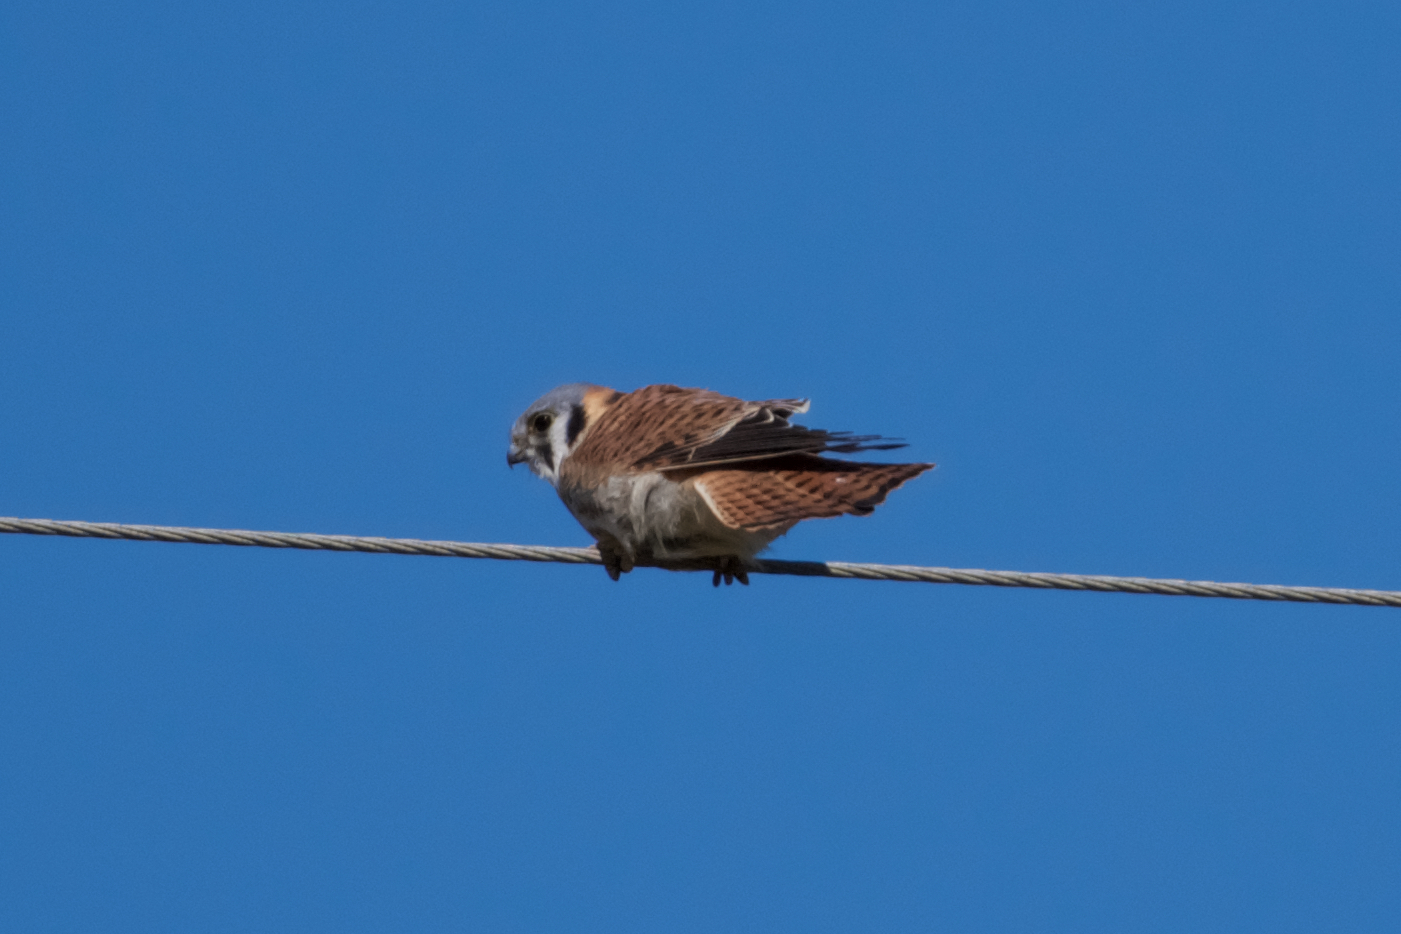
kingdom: Animalia
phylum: Chordata
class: Aves
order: Falconiformes
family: Falconidae
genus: Falco
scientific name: Falco sparverius
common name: American kestrel
